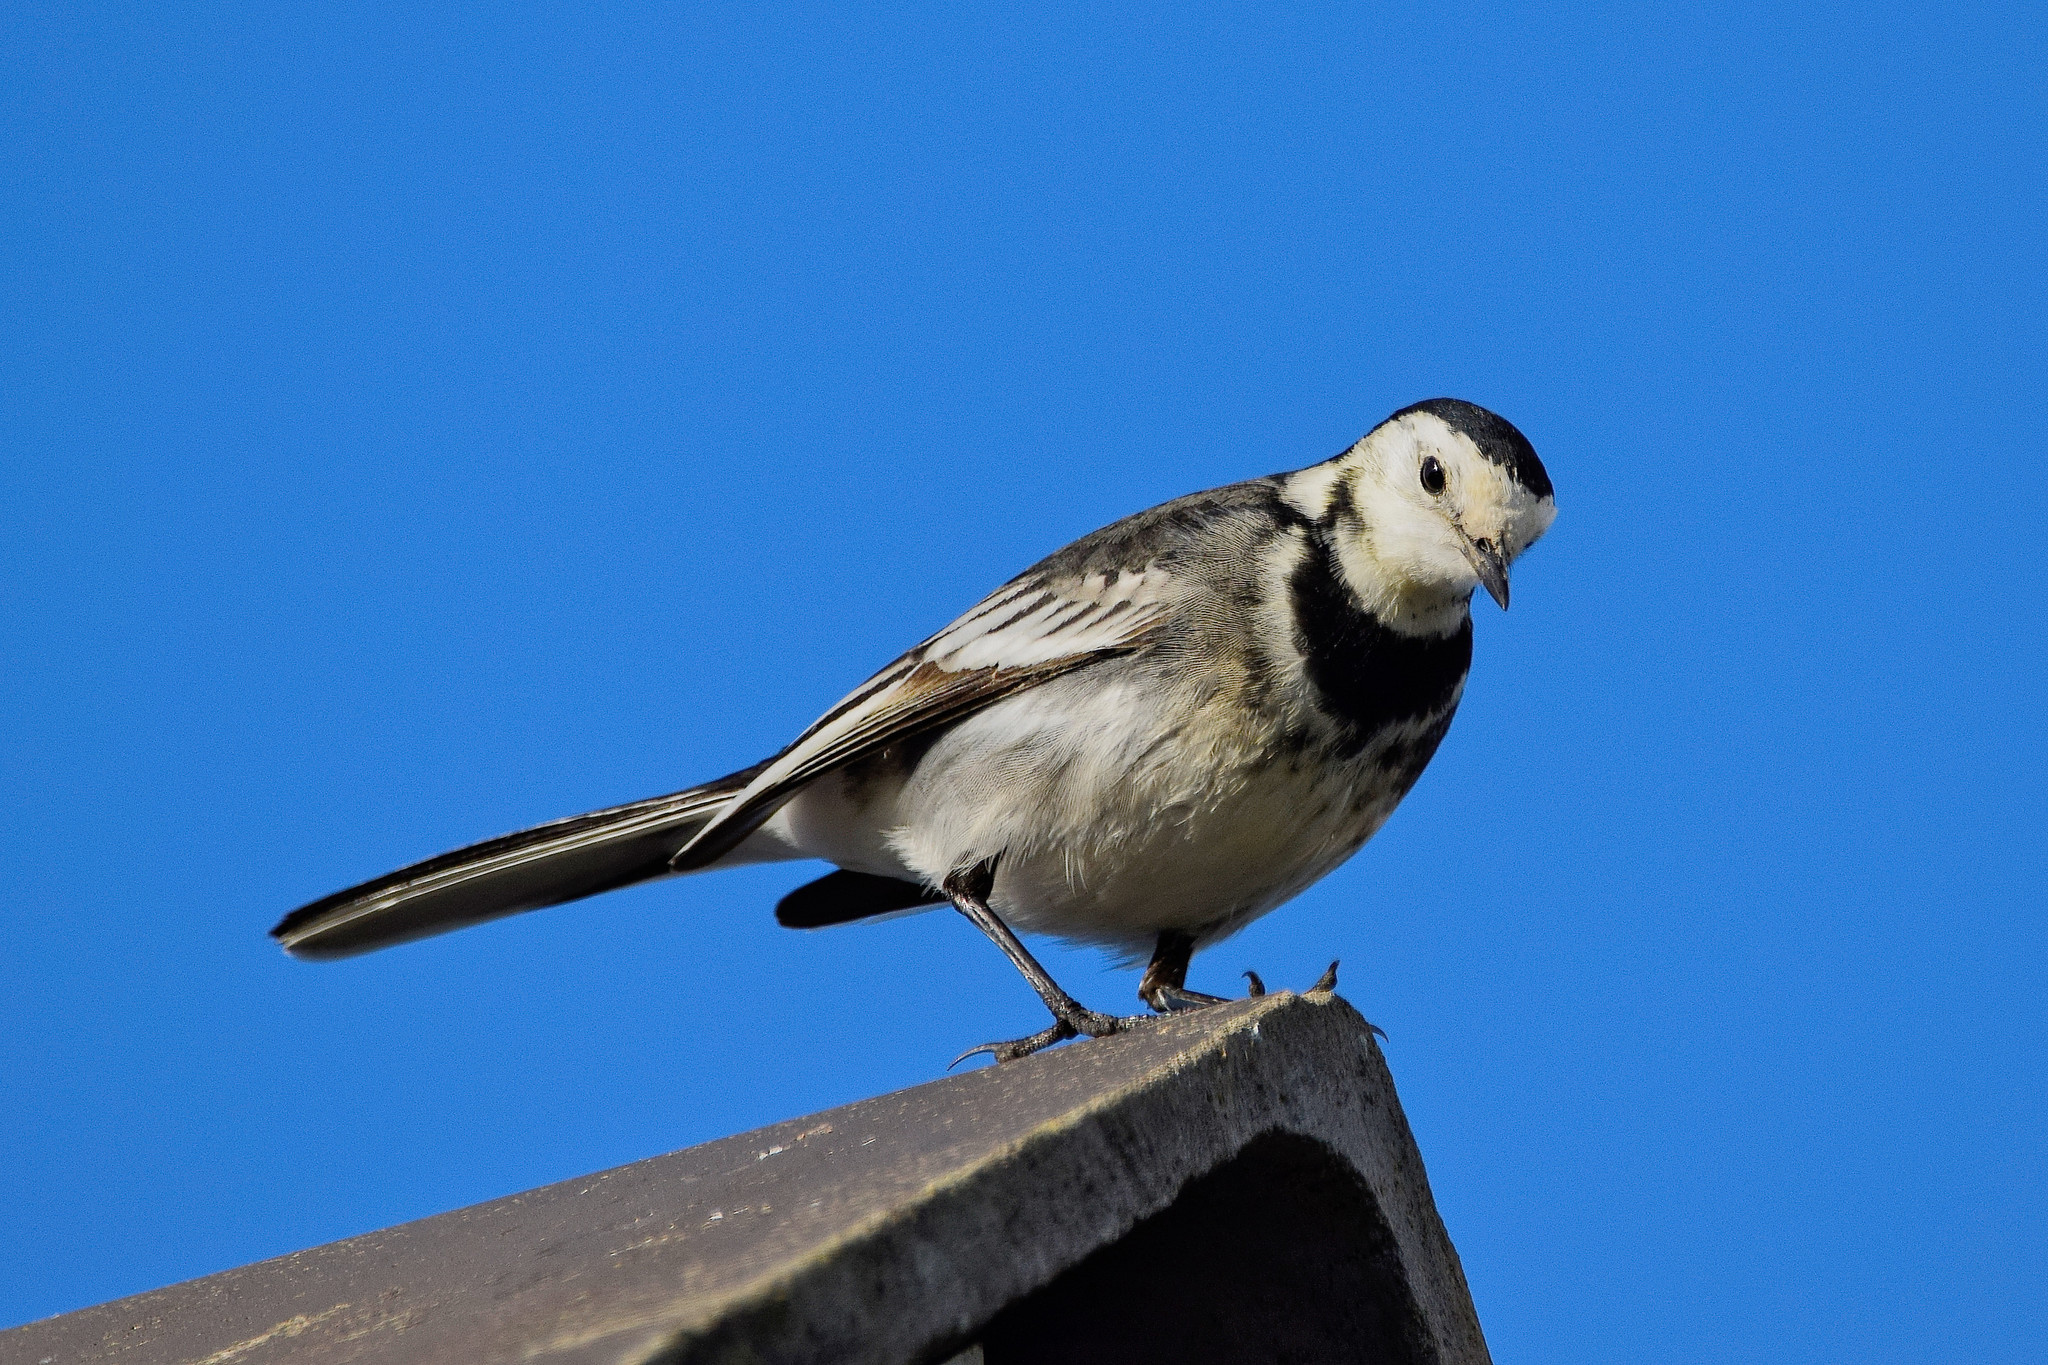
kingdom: Animalia
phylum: Chordata
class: Aves
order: Passeriformes
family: Motacillidae
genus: Motacilla
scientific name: Motacilla alba
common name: White wagtail
